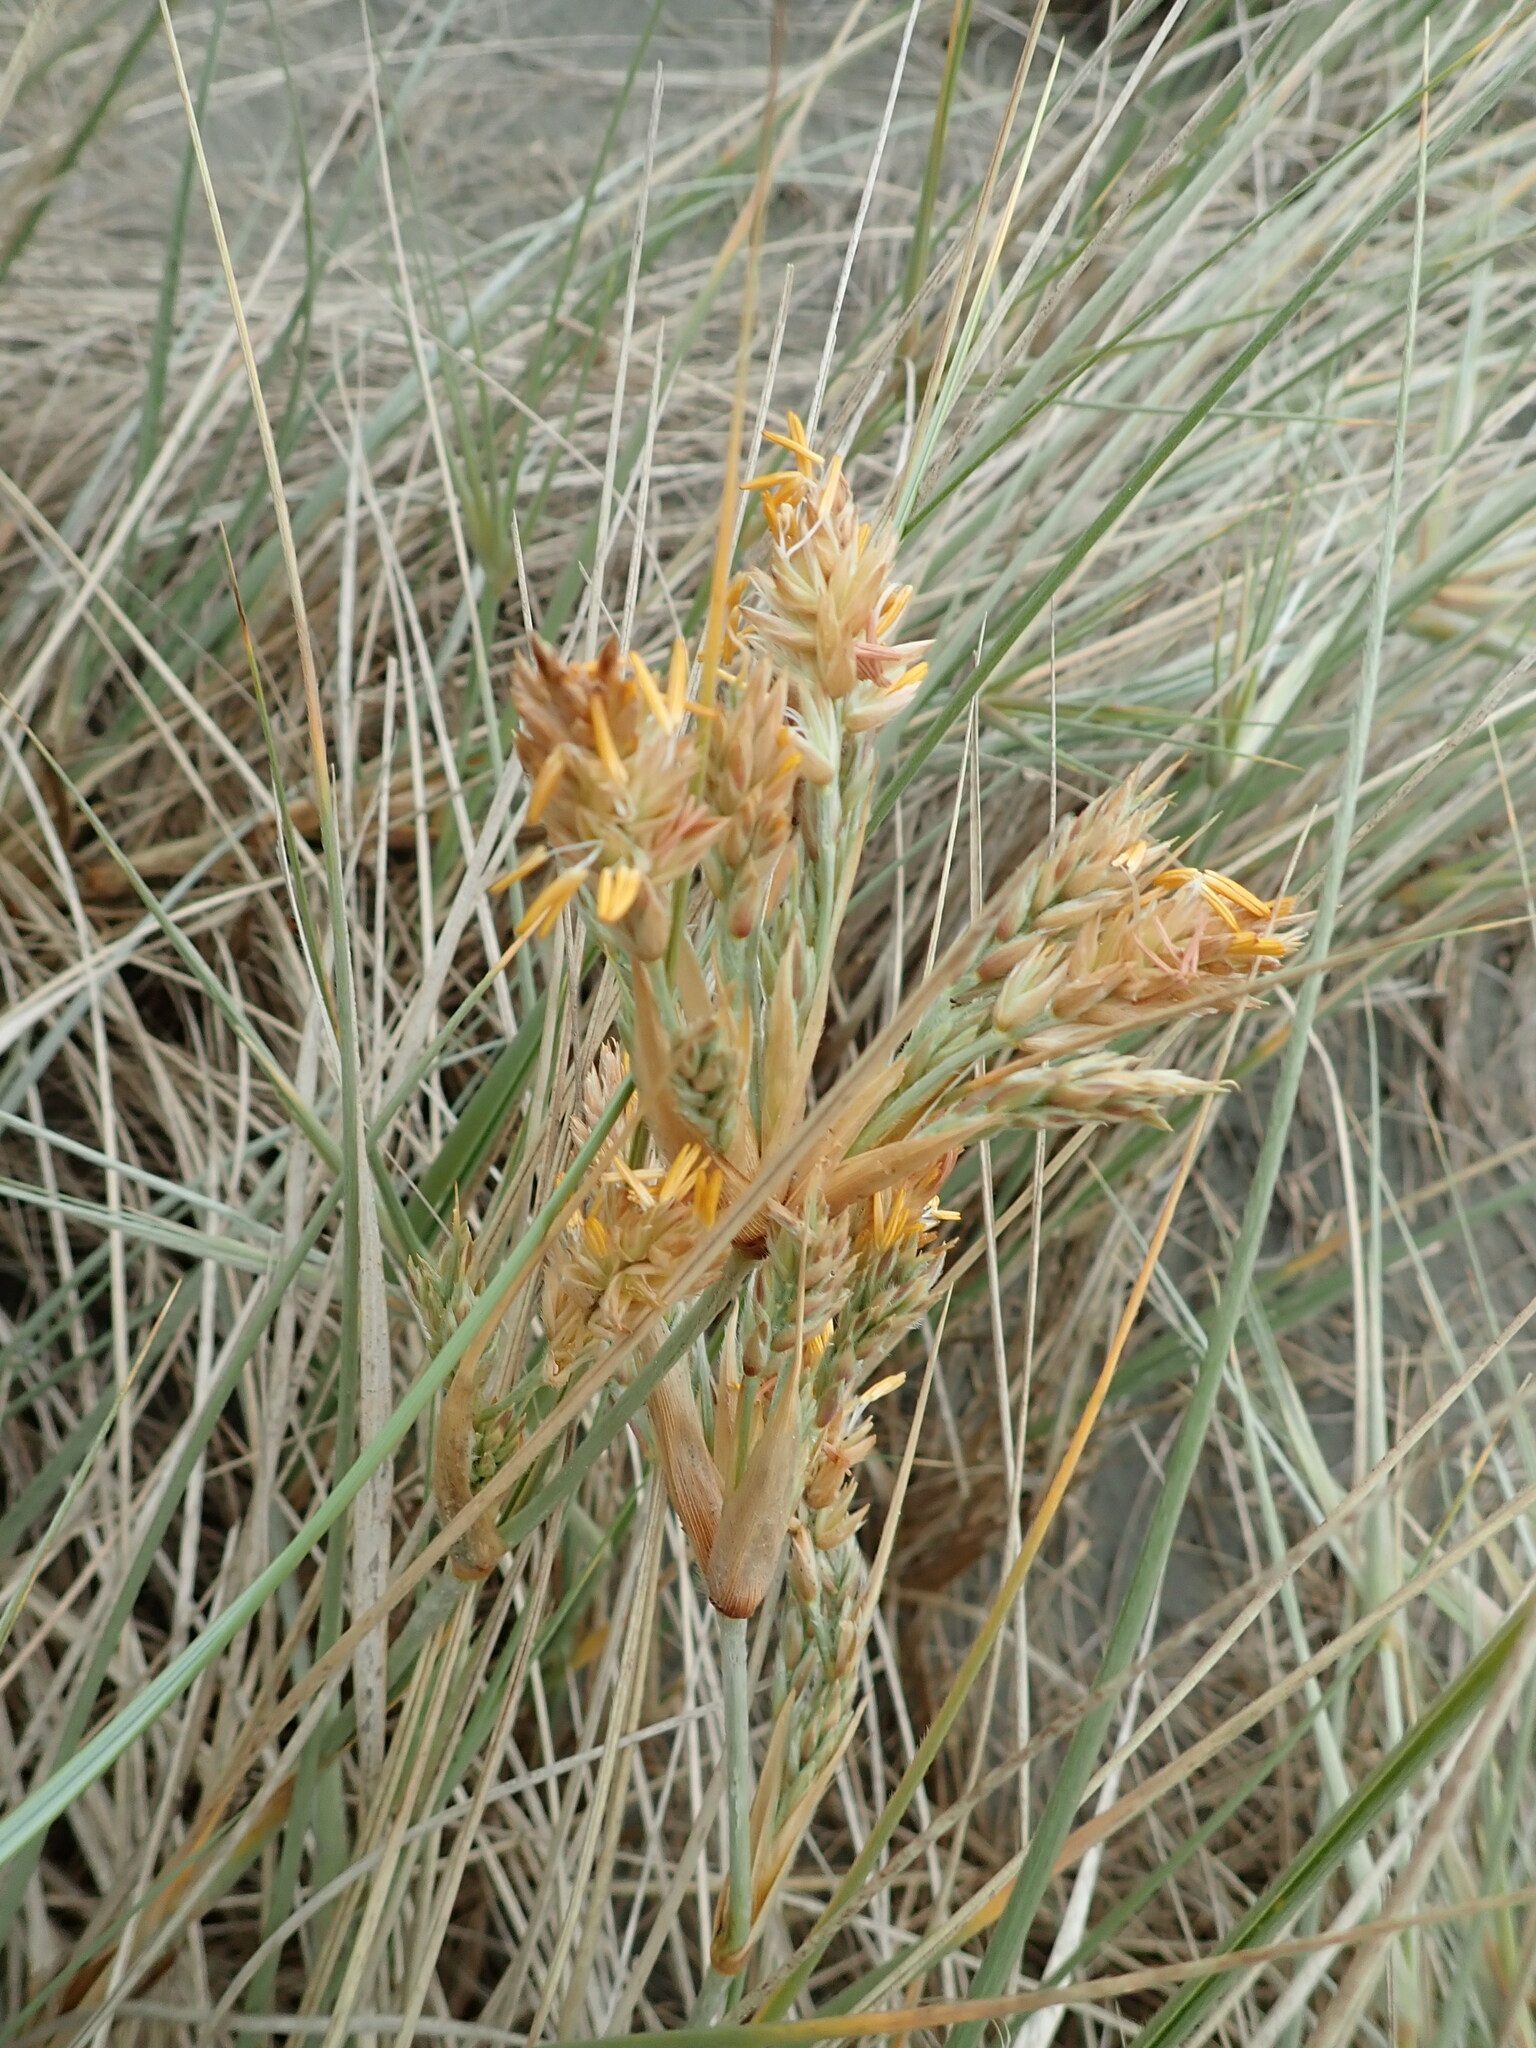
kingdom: Plantae
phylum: Tracheophyta
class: Liliopsida
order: Poales
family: Poaceae
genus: Spinifex
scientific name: Spinifex sericeus
